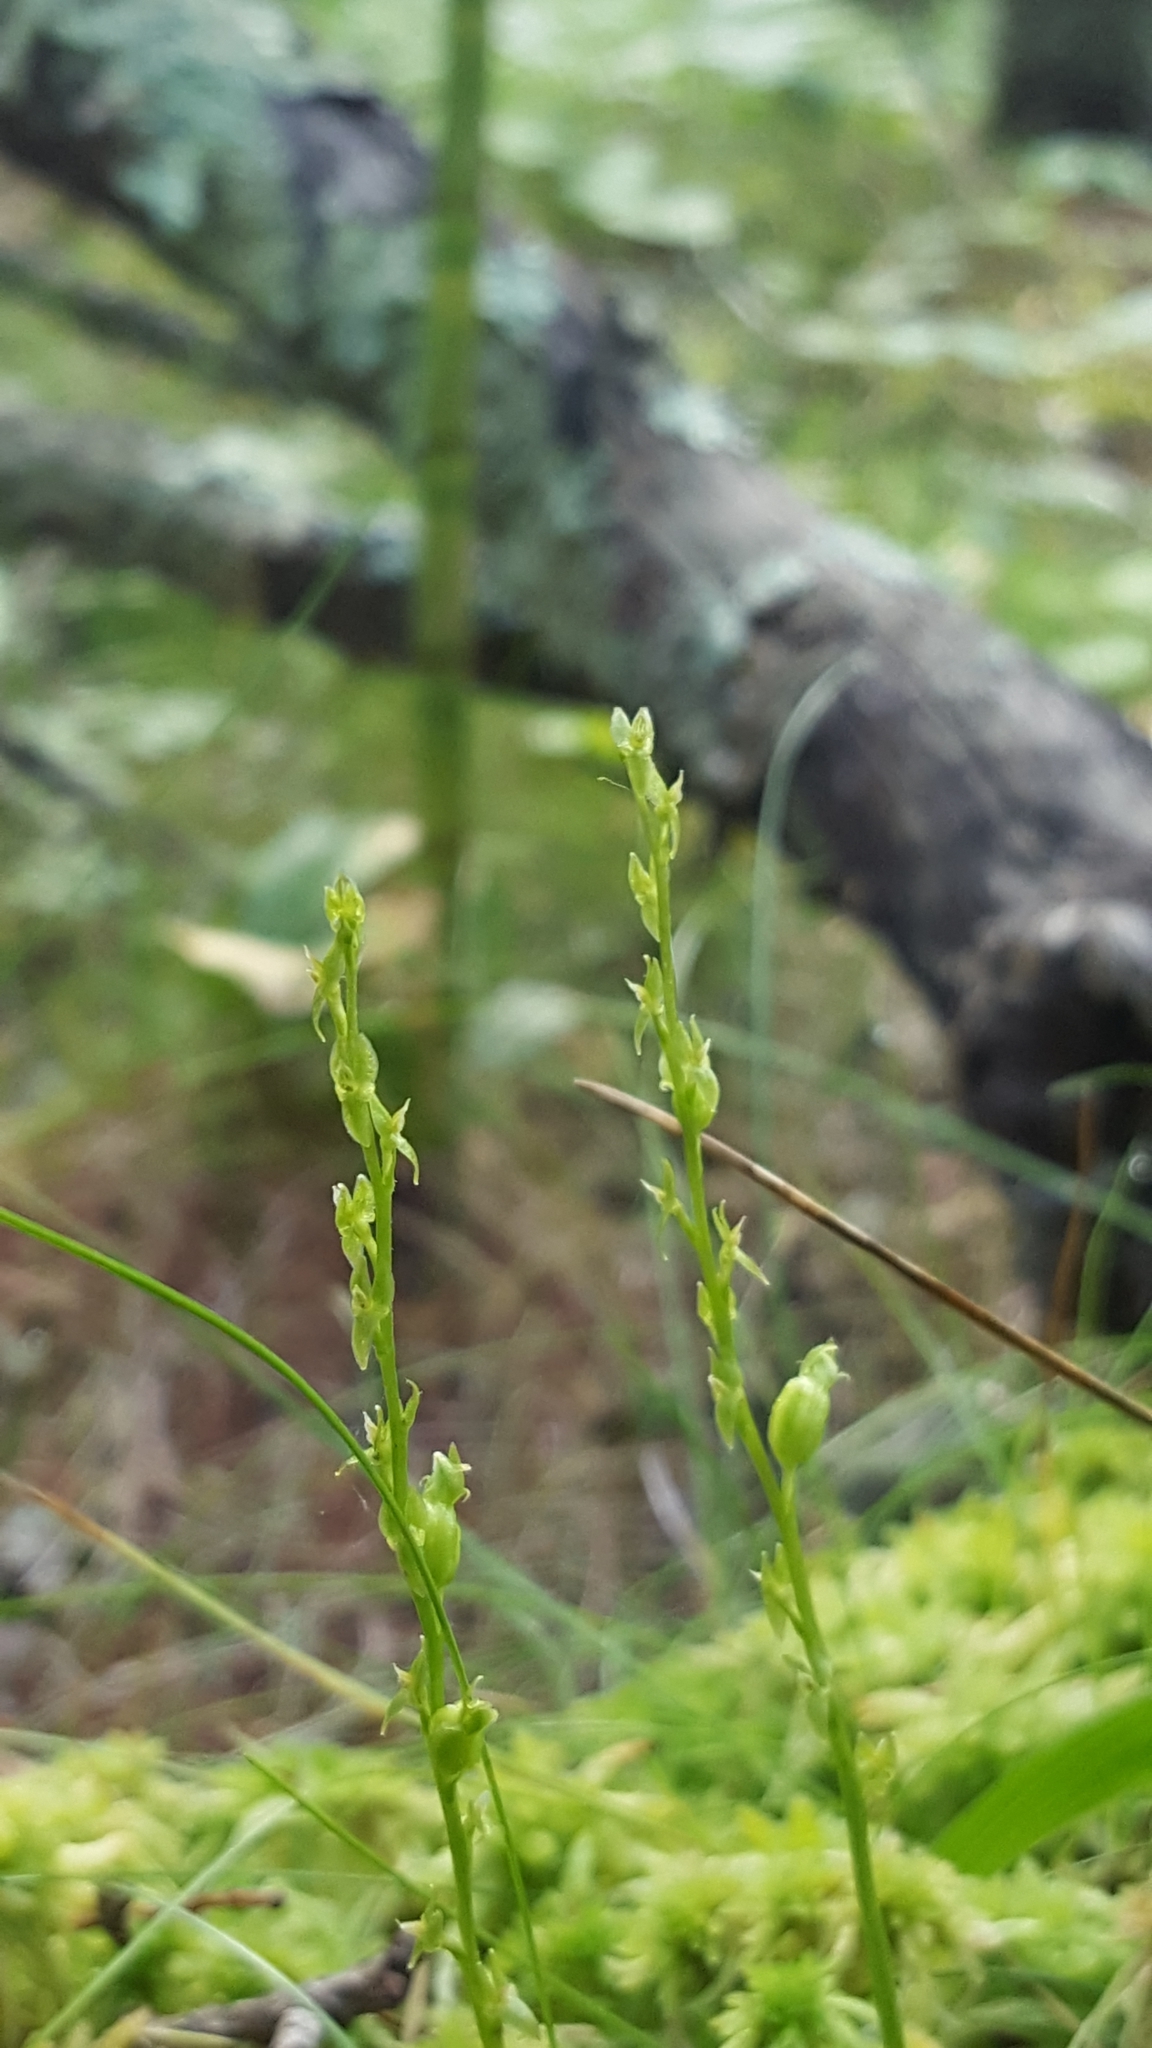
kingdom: Plantae
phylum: Tracheophyta
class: Liliopsida
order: Asparagales
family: Orchidaceae
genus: Hammarbya
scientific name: Hammarbya paludosa
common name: Bog orchid
